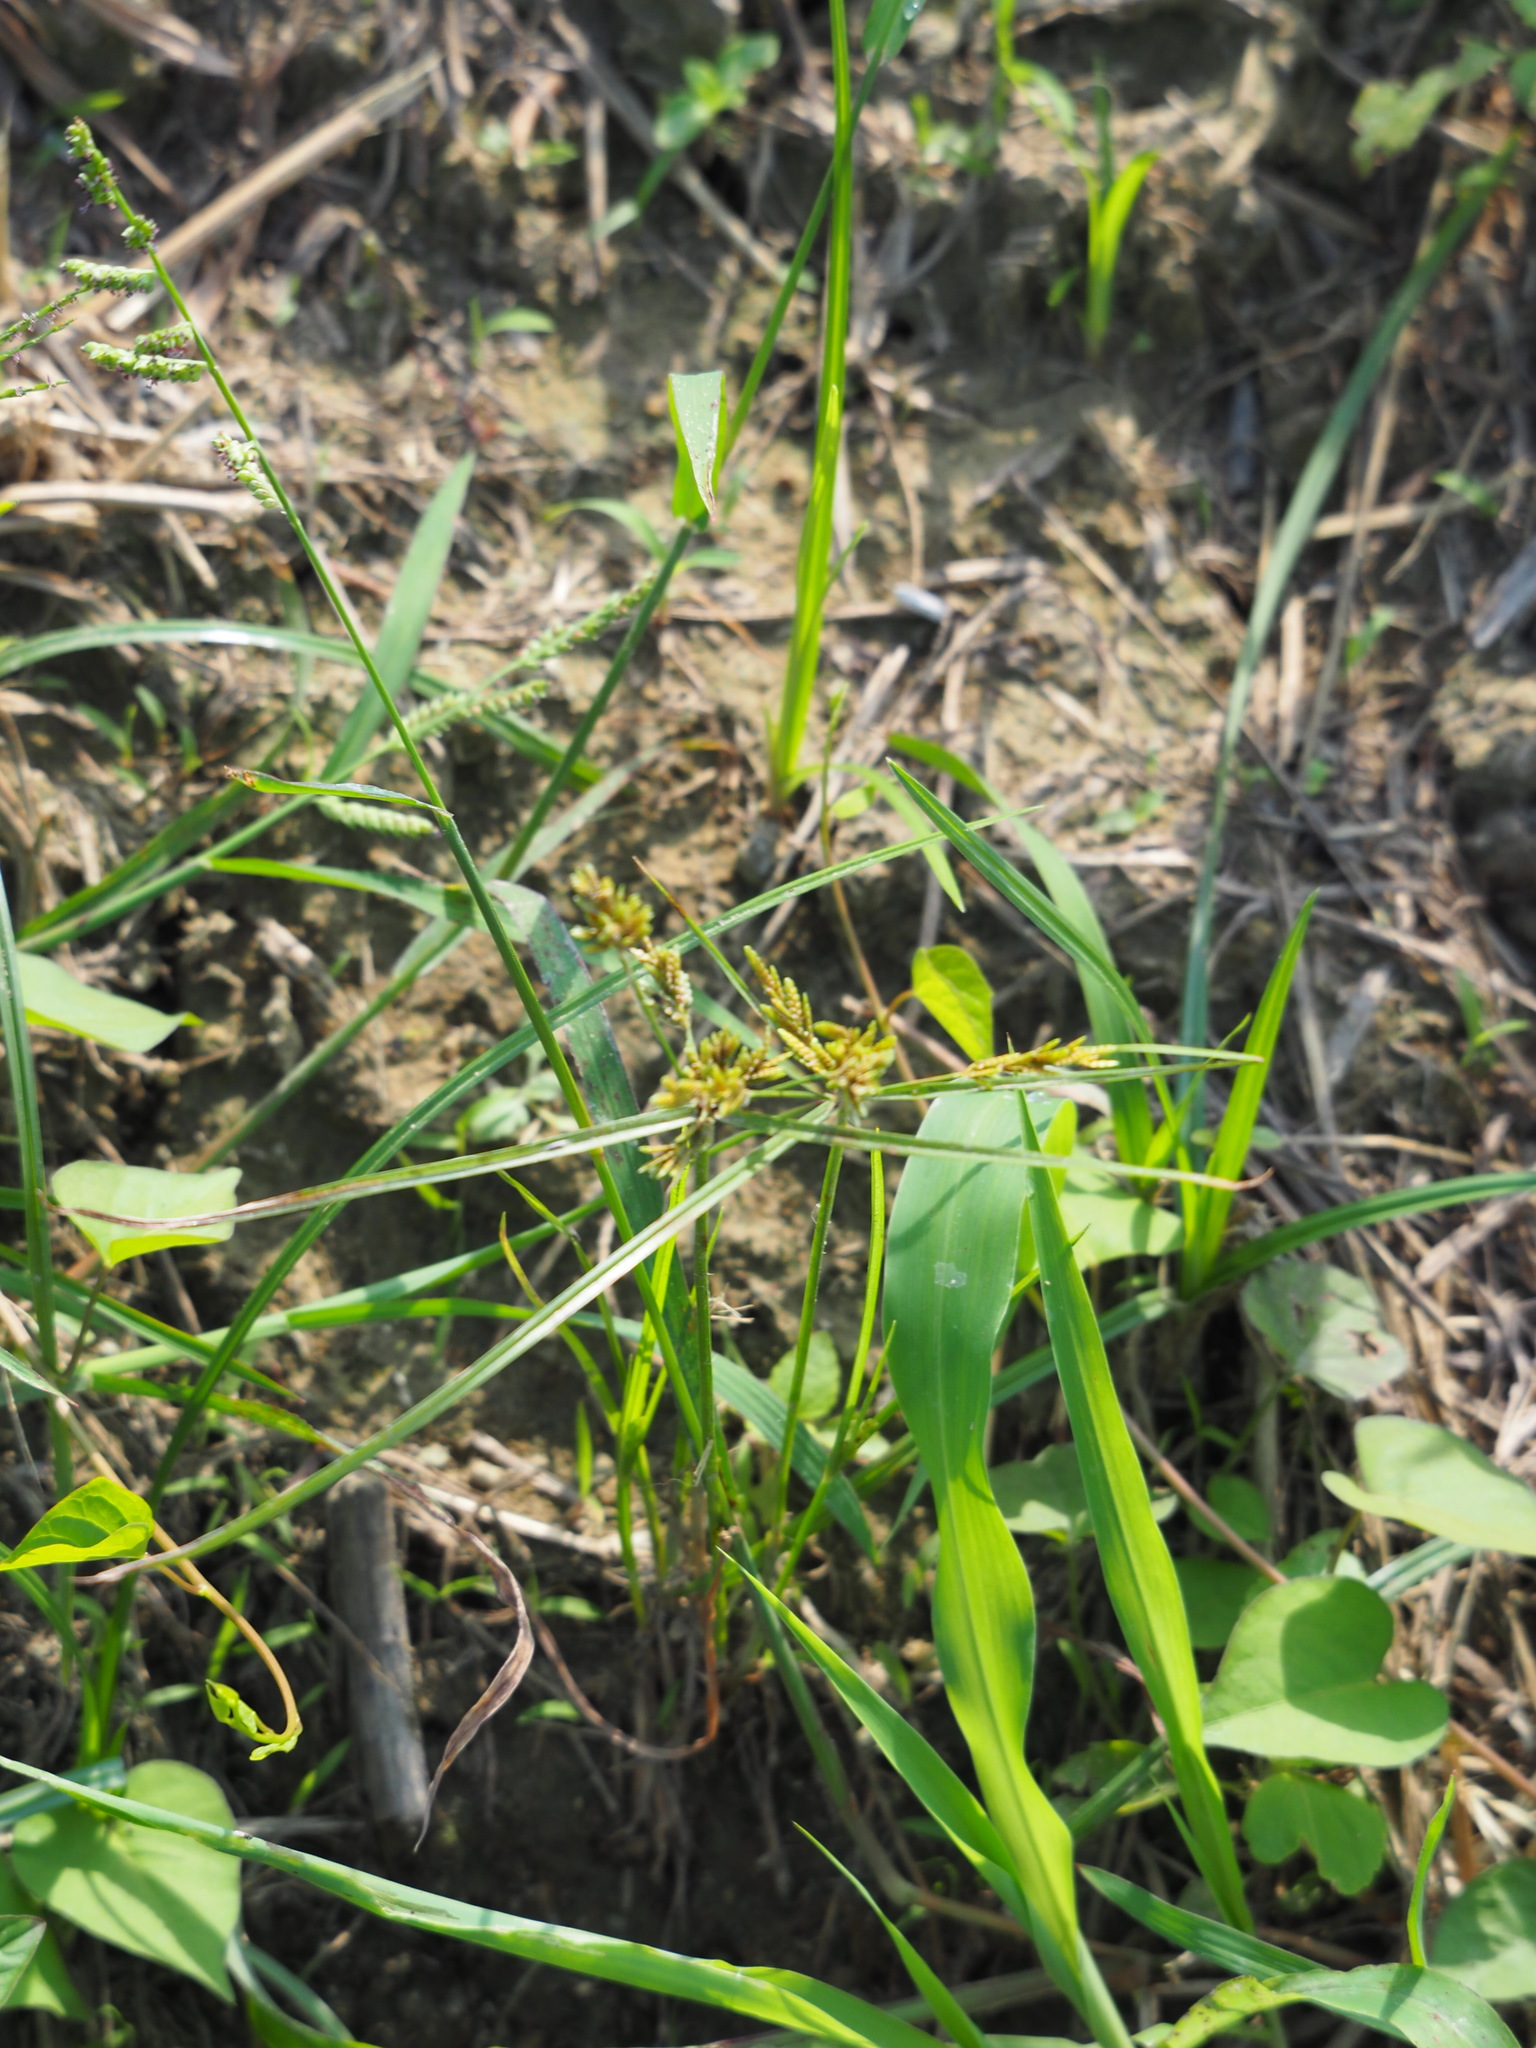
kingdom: Plantae
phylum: Tracheophyta
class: Liliopsida
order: Poales
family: Cyperaceae
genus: Cyperus
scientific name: Cyperus iria
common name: Ricefield flatsedge
